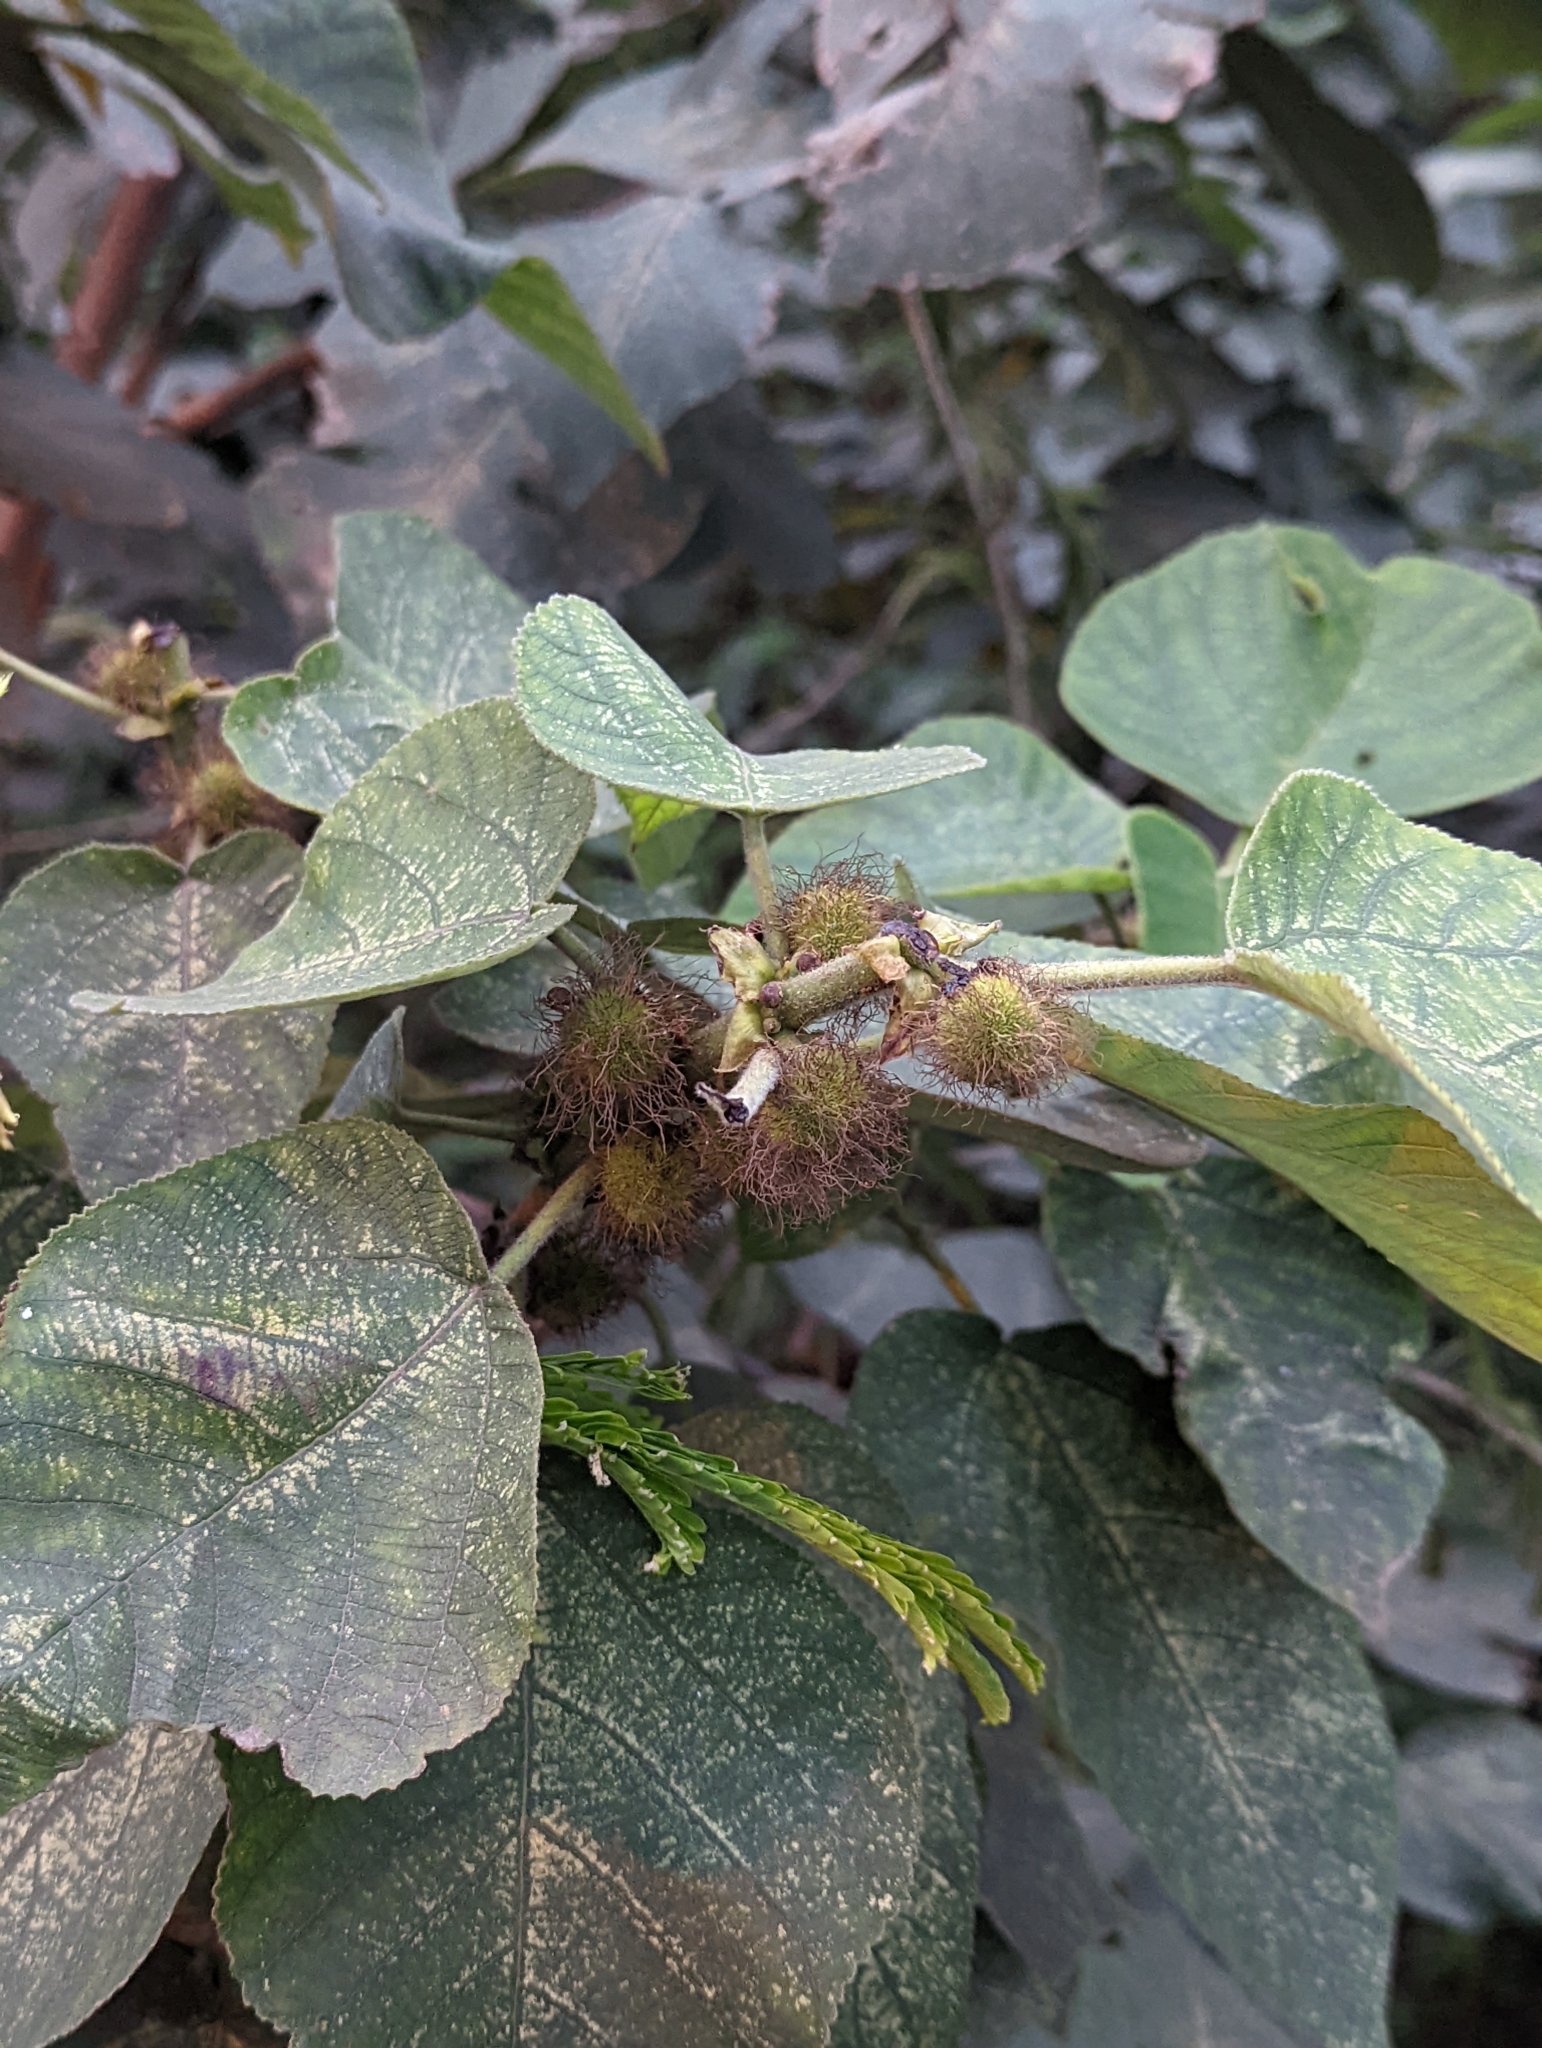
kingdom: Plantae
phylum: Tracheophyta
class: Magnoliopsida
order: Rosales
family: Moraceae
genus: Broussonetia
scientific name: Broussonetia papyrifera
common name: Paper mulberry
